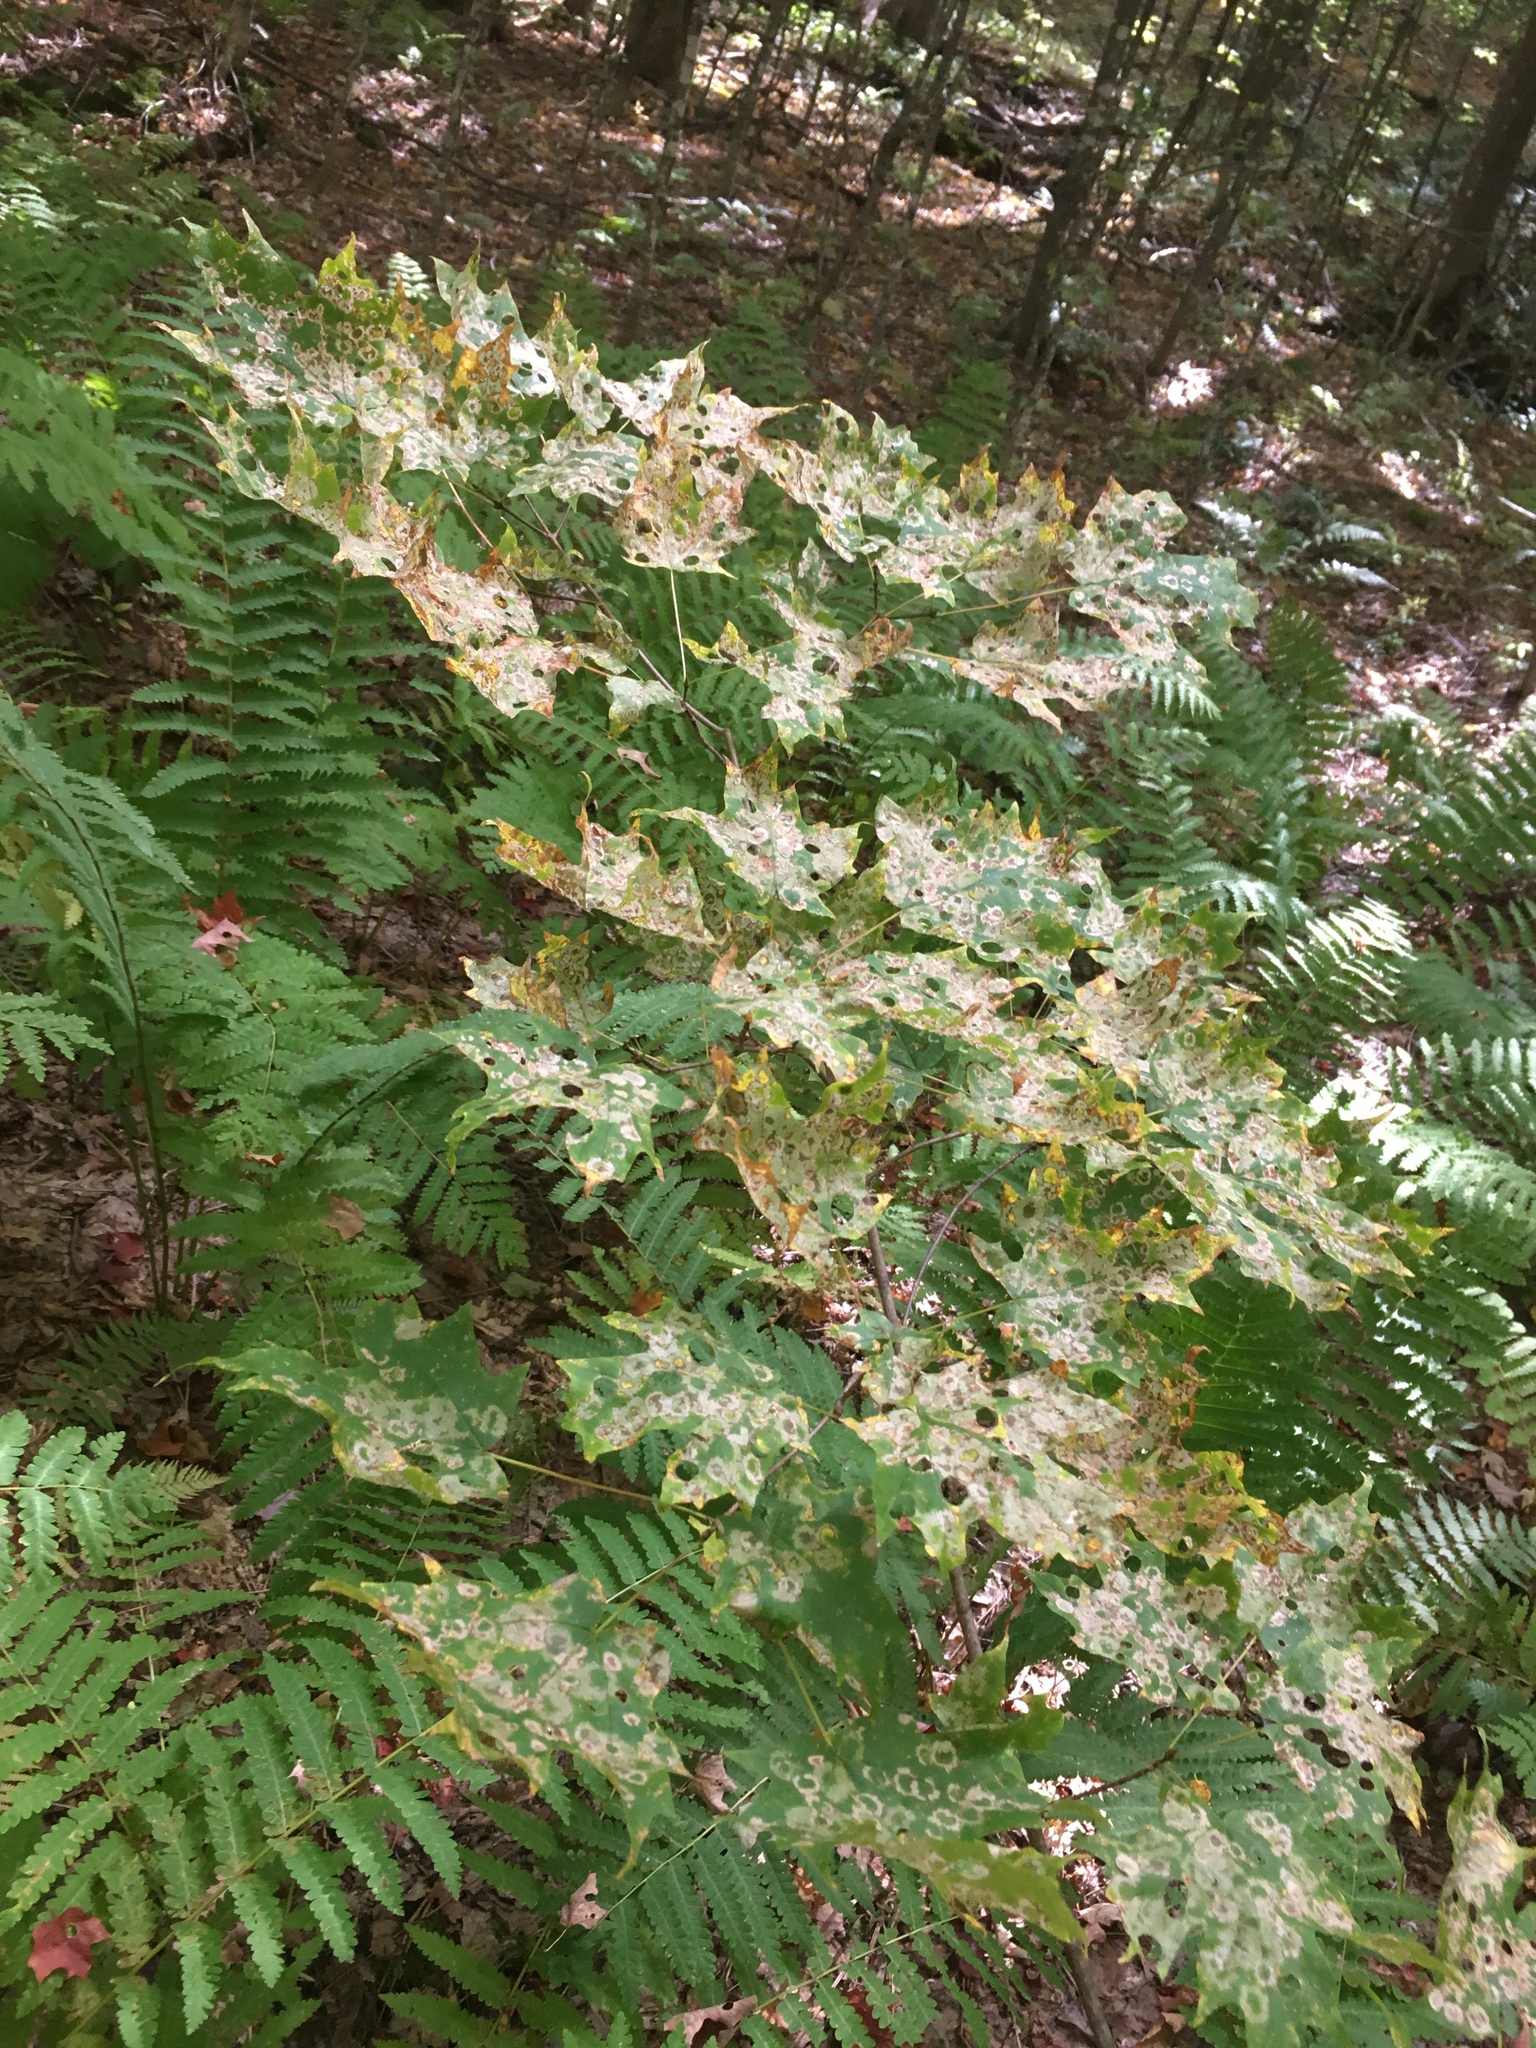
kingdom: Animalia
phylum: Arthropoda
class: Insecta
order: Lepidoptera
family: Incurvariidae
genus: Paraclemensia
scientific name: Paraclemensia acerifoliella
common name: Maple leafcutter
